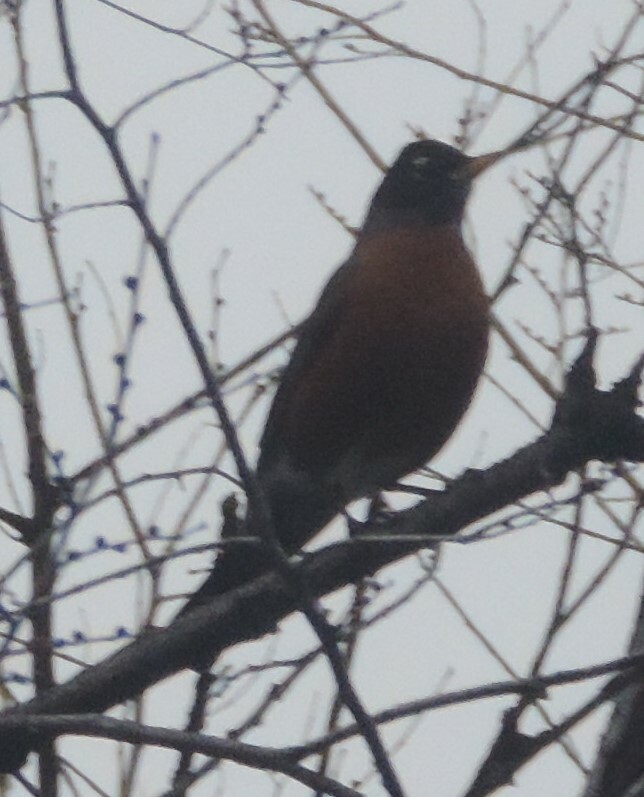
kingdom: Animalia
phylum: Chordata
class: Aves
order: Passeriformes
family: Turdidae
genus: Turdus
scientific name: Turdus migratorius
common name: American robin
